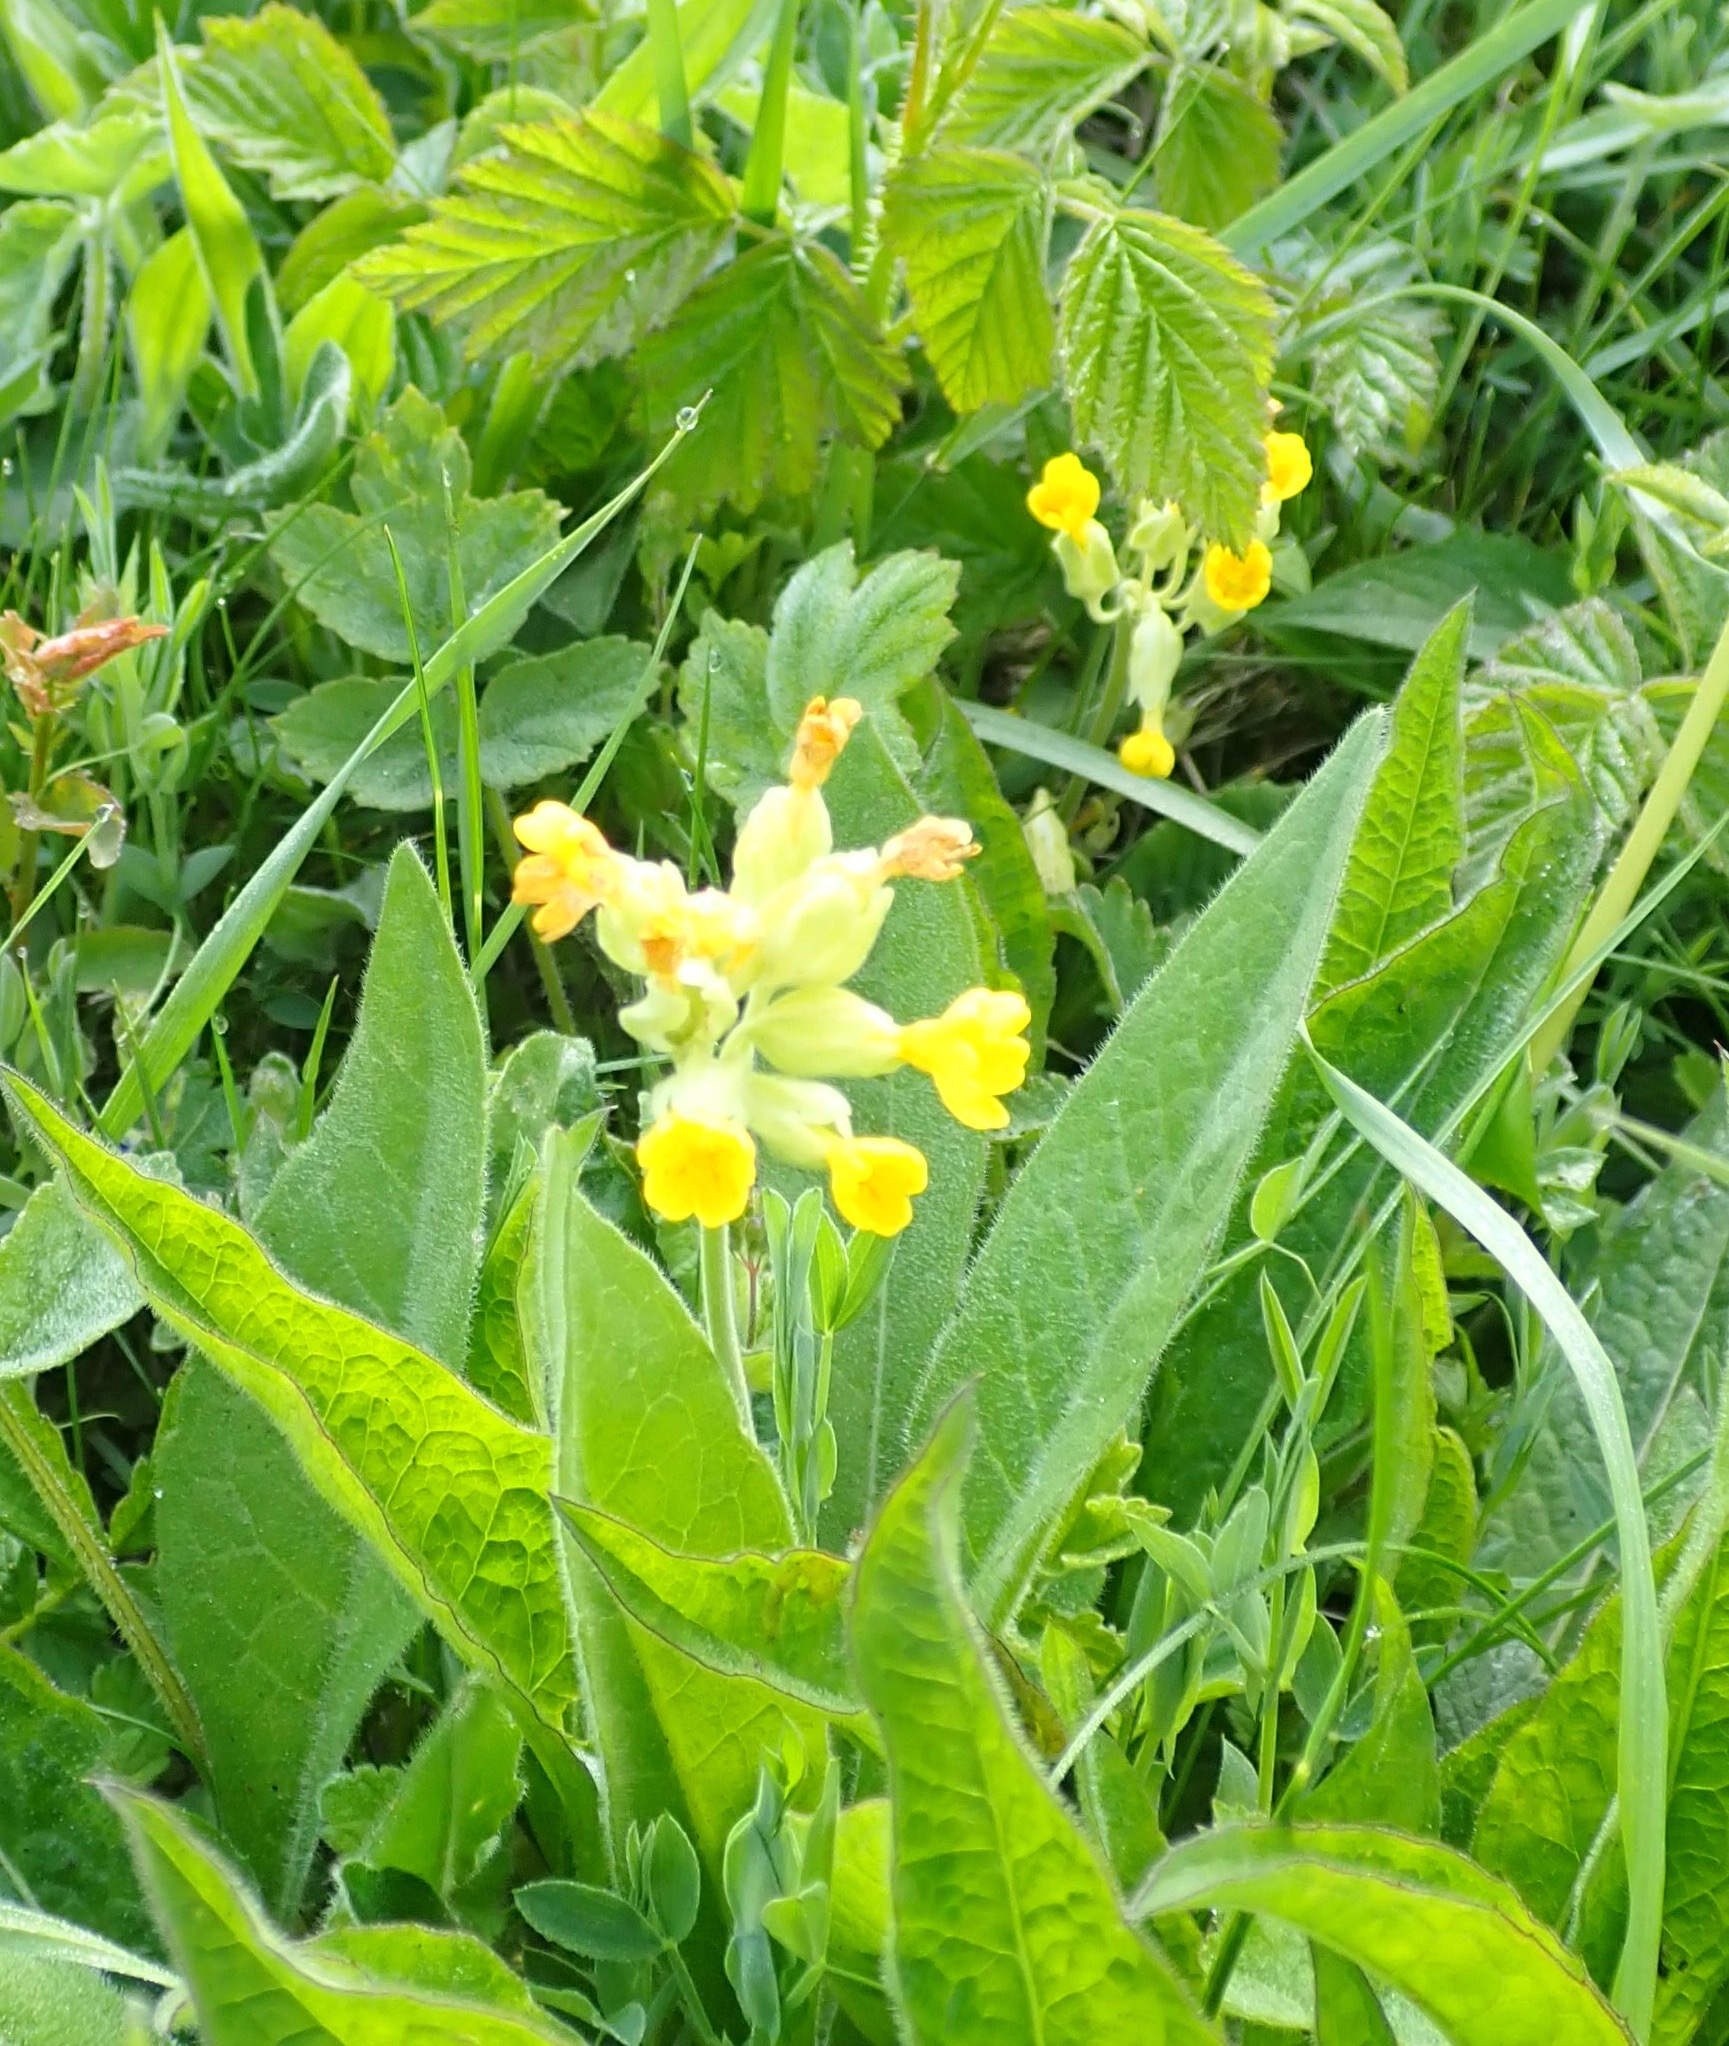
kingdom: Plantae
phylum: Tracheophyta
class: Magnoliopsida
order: Ericales
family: Primulaceae
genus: Primula
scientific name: Primula veris
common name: Cowslip
